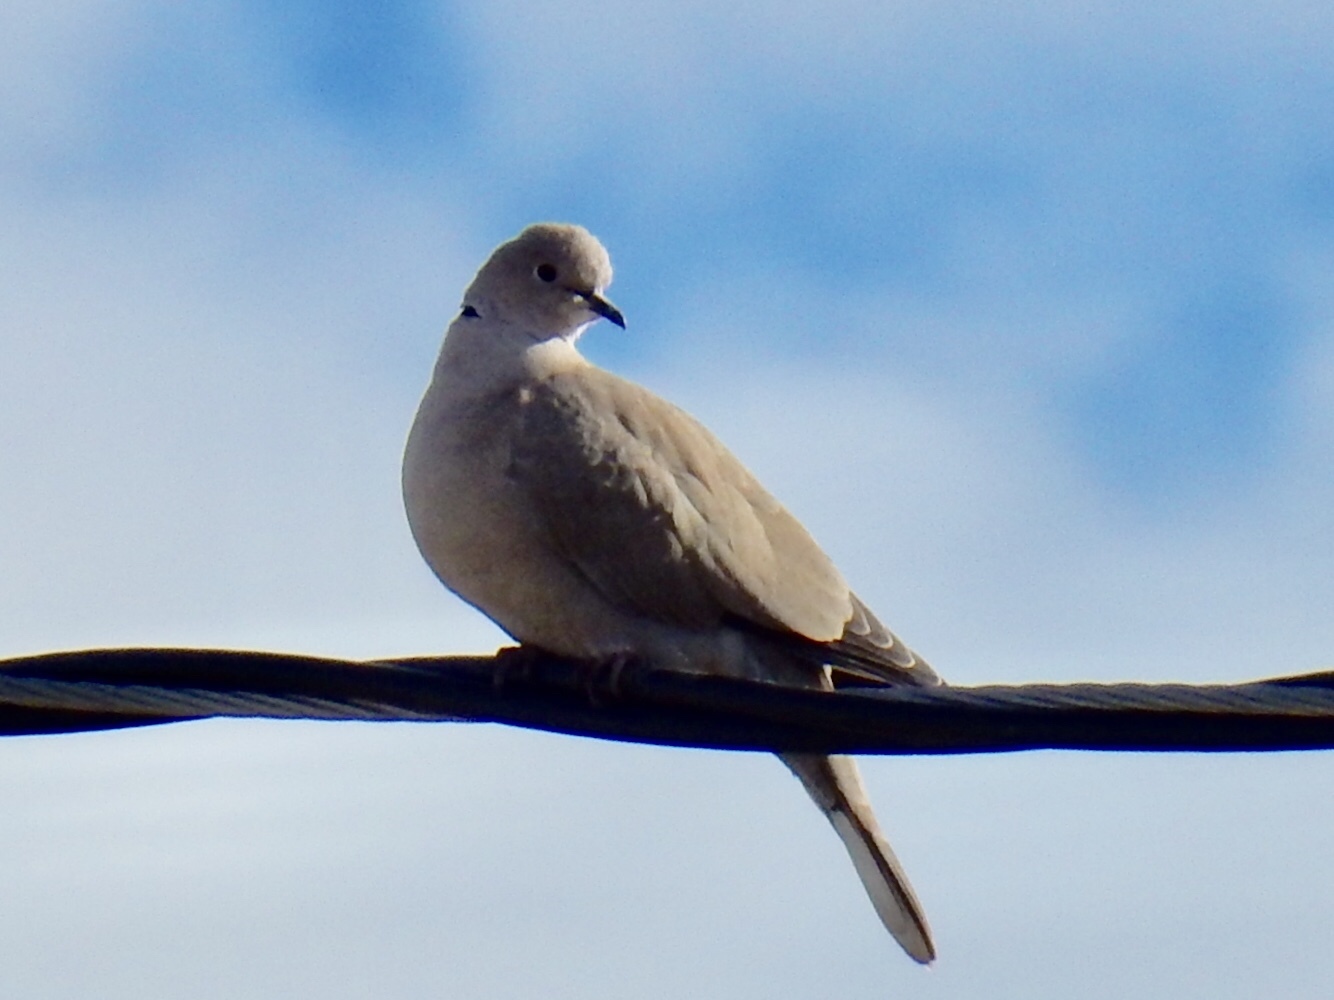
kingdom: Animalia
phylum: Chordata
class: Aves
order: Columbiformes
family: Columbidae
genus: Streptopelia
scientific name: Streptopelia decaocto
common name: Eurasian collared dove
